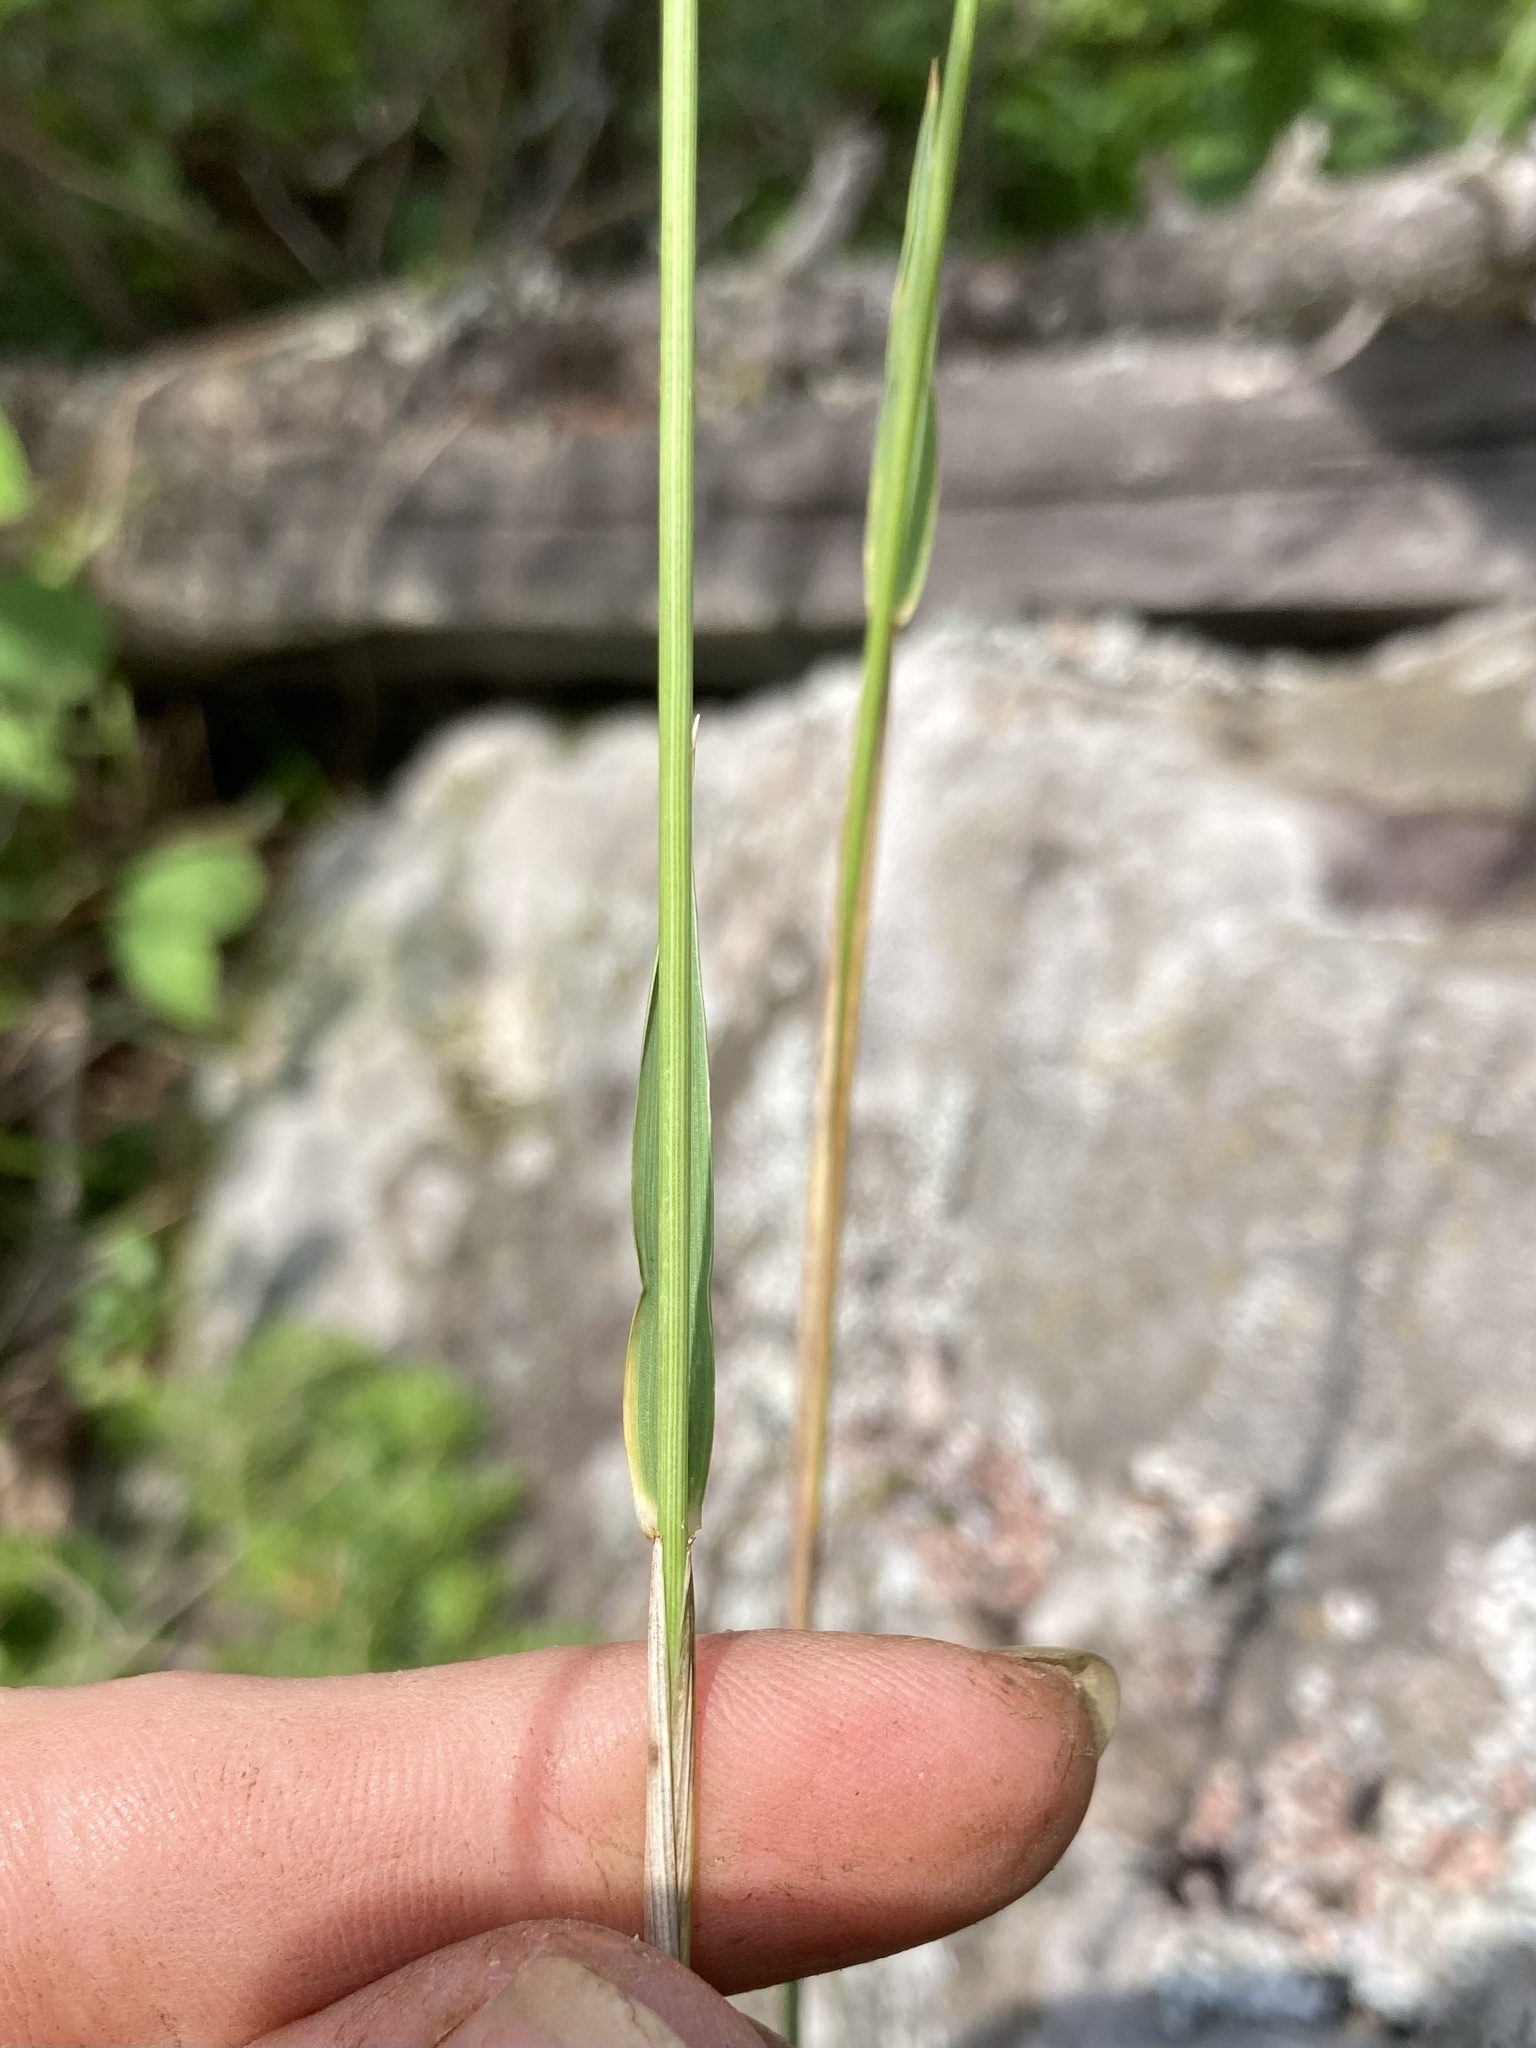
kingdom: Plantae
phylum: Tracheophyta
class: Liliopsida
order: Poales
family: Poaceae
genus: Leymus
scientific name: Leymus innovatus
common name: Boreal wild rye
